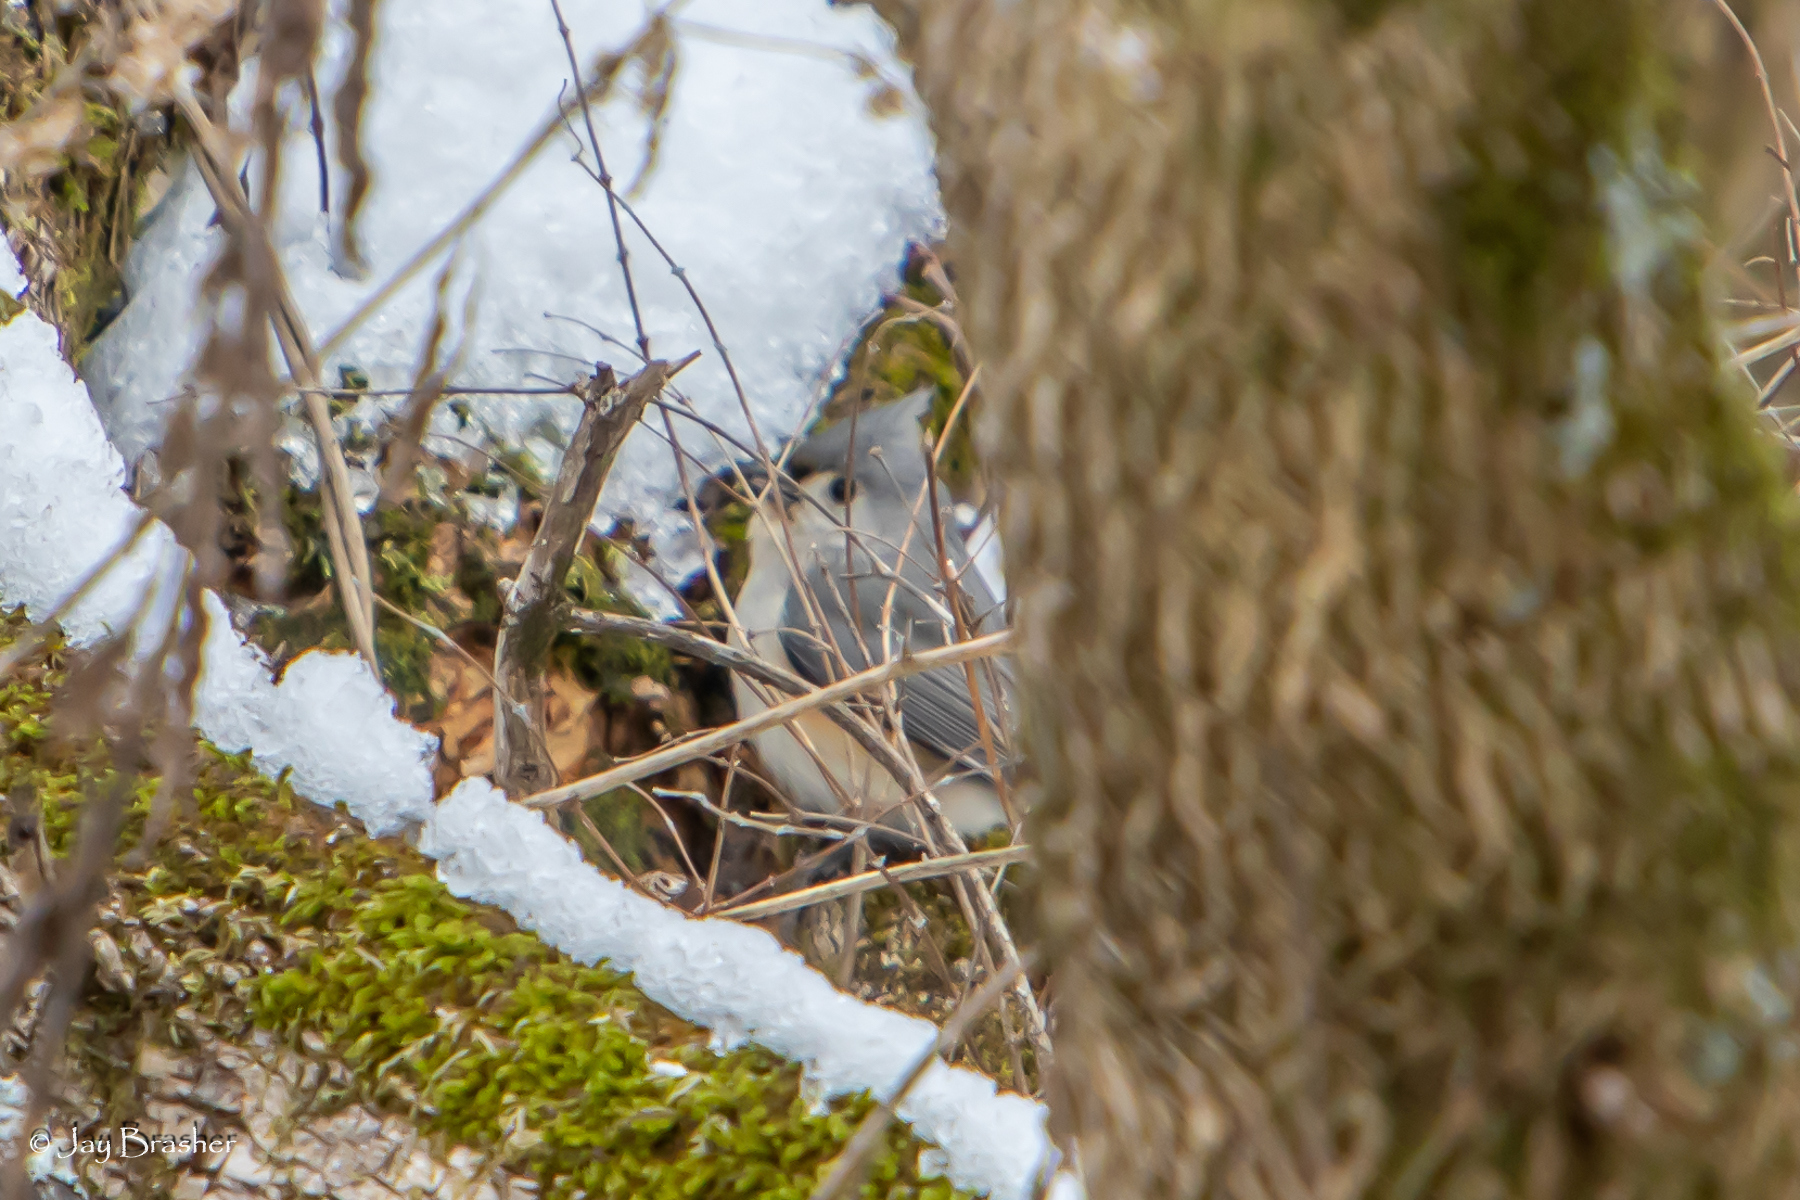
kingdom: Animalia
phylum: Chordata
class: Aves
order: Passeriformes
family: Paridae
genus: Baeolophus
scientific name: Baeolophus bicolor
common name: Tufted titmouse
